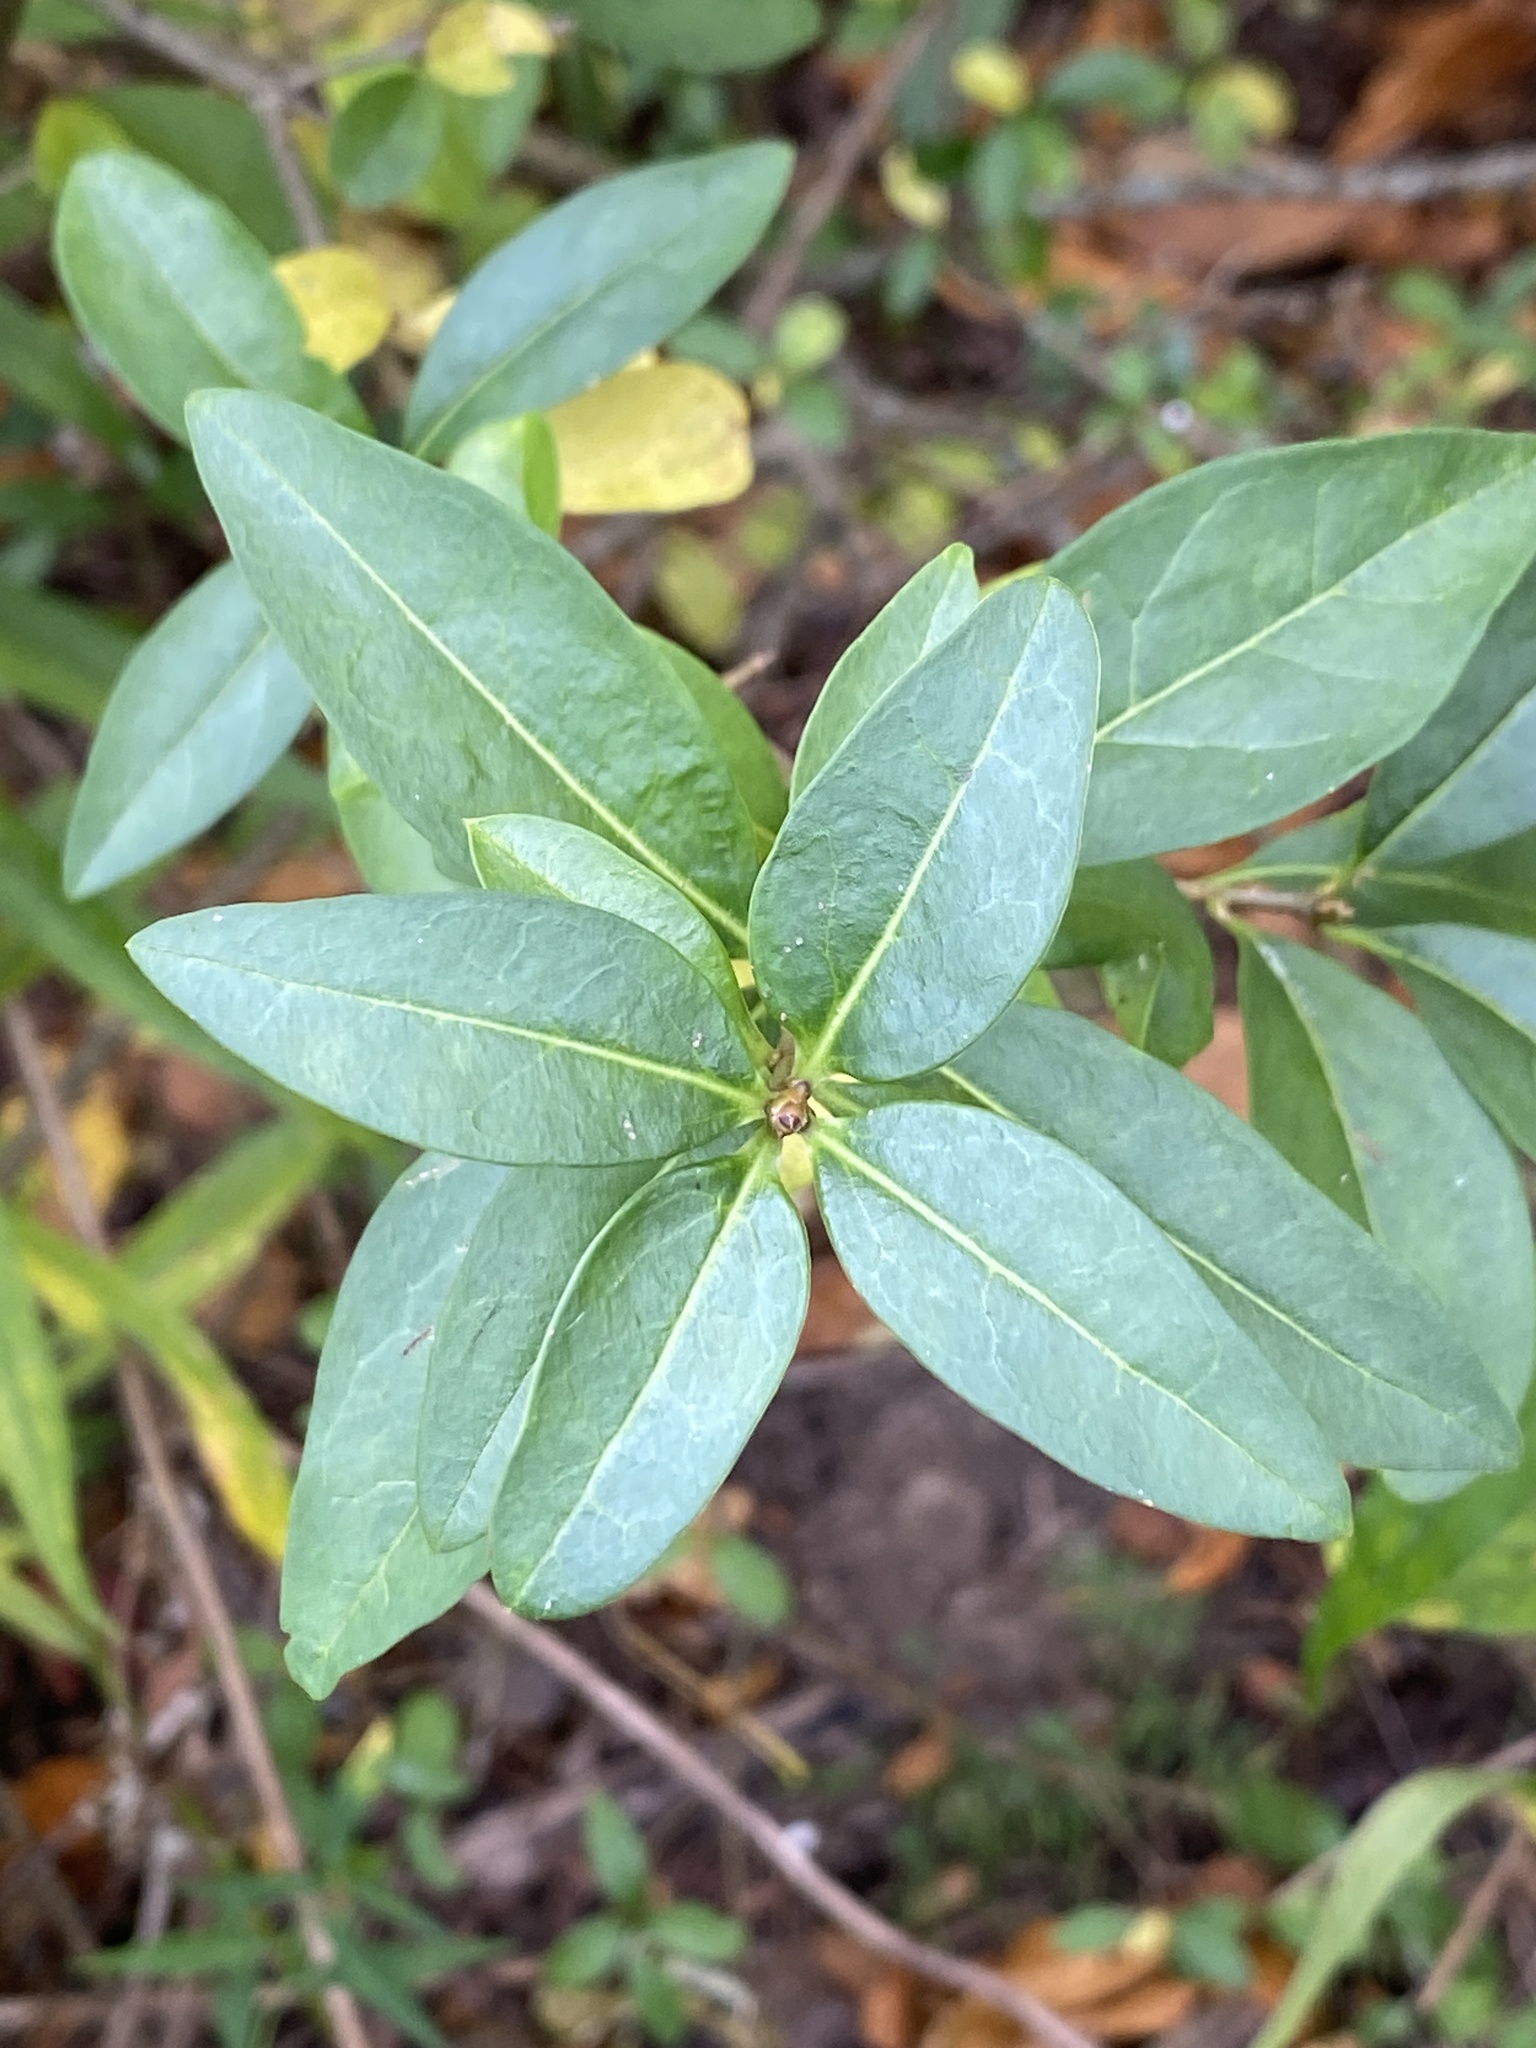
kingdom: Plantae
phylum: Tracheophyta
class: Magnoliopsida
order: Lamiales
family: Oleaceae
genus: Ligustrum
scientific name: Ligustrum vulgare
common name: Wild privet
